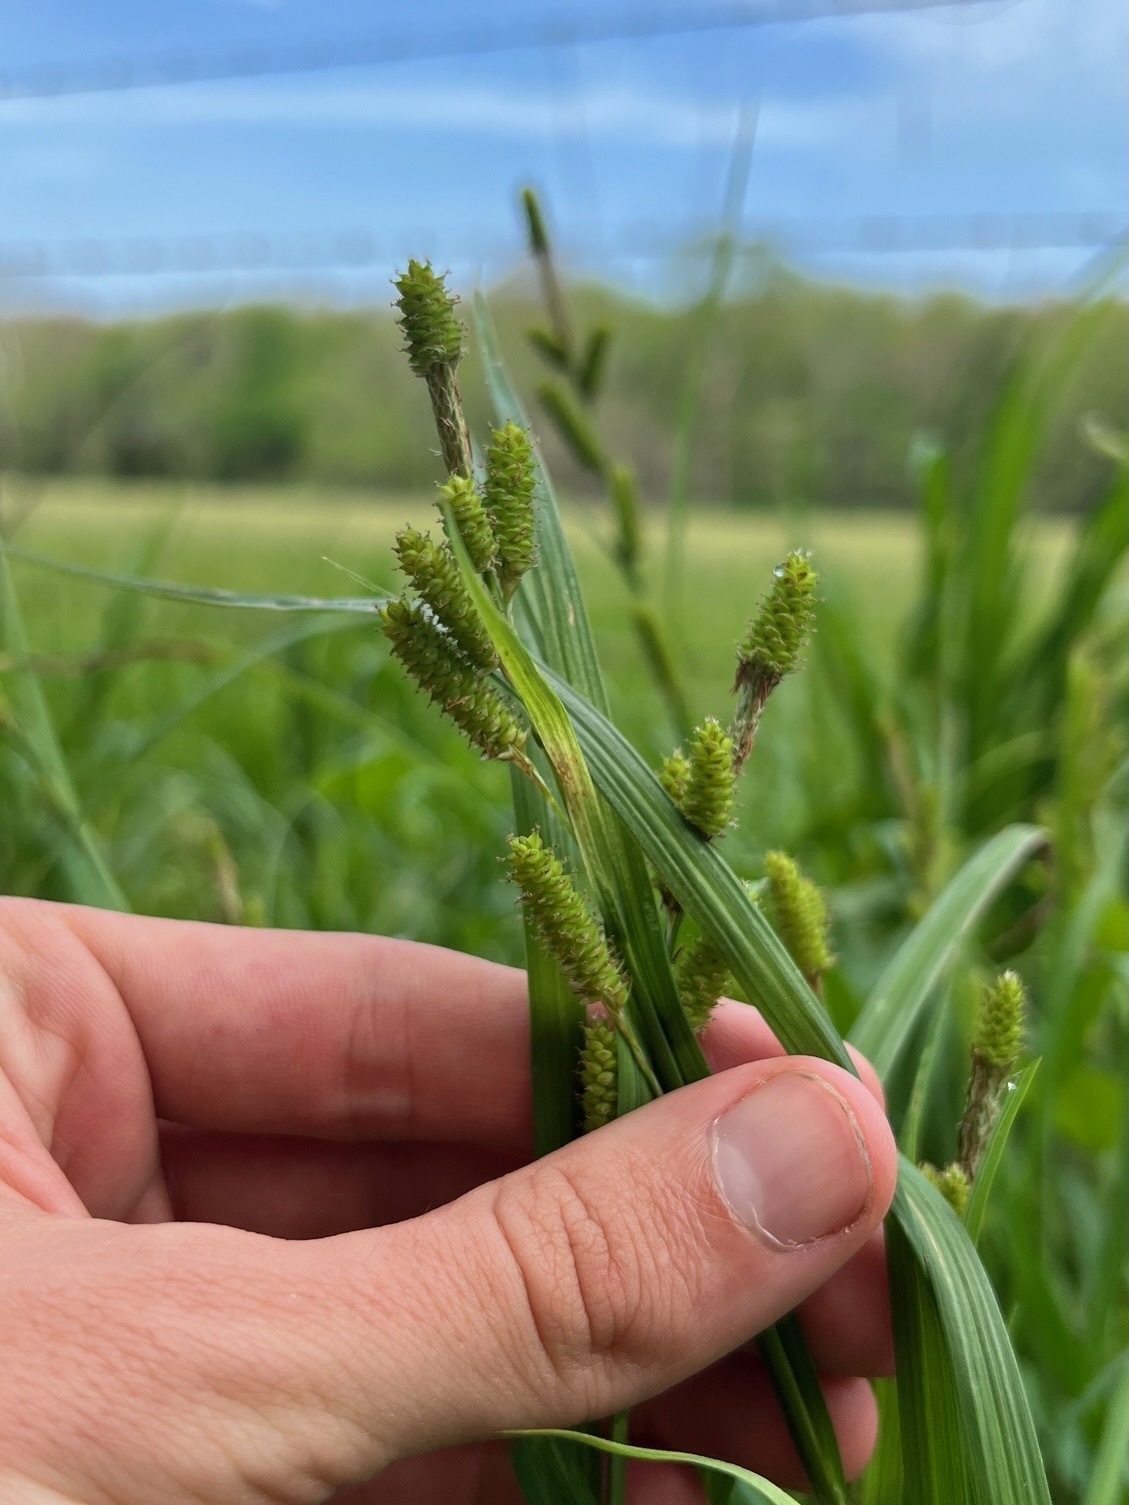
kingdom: Plantae
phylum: Tracheophyta
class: Liliopsida
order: Poales
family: Cyperaceae
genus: Carex
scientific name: Carex shortiana
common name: Short's sedge
